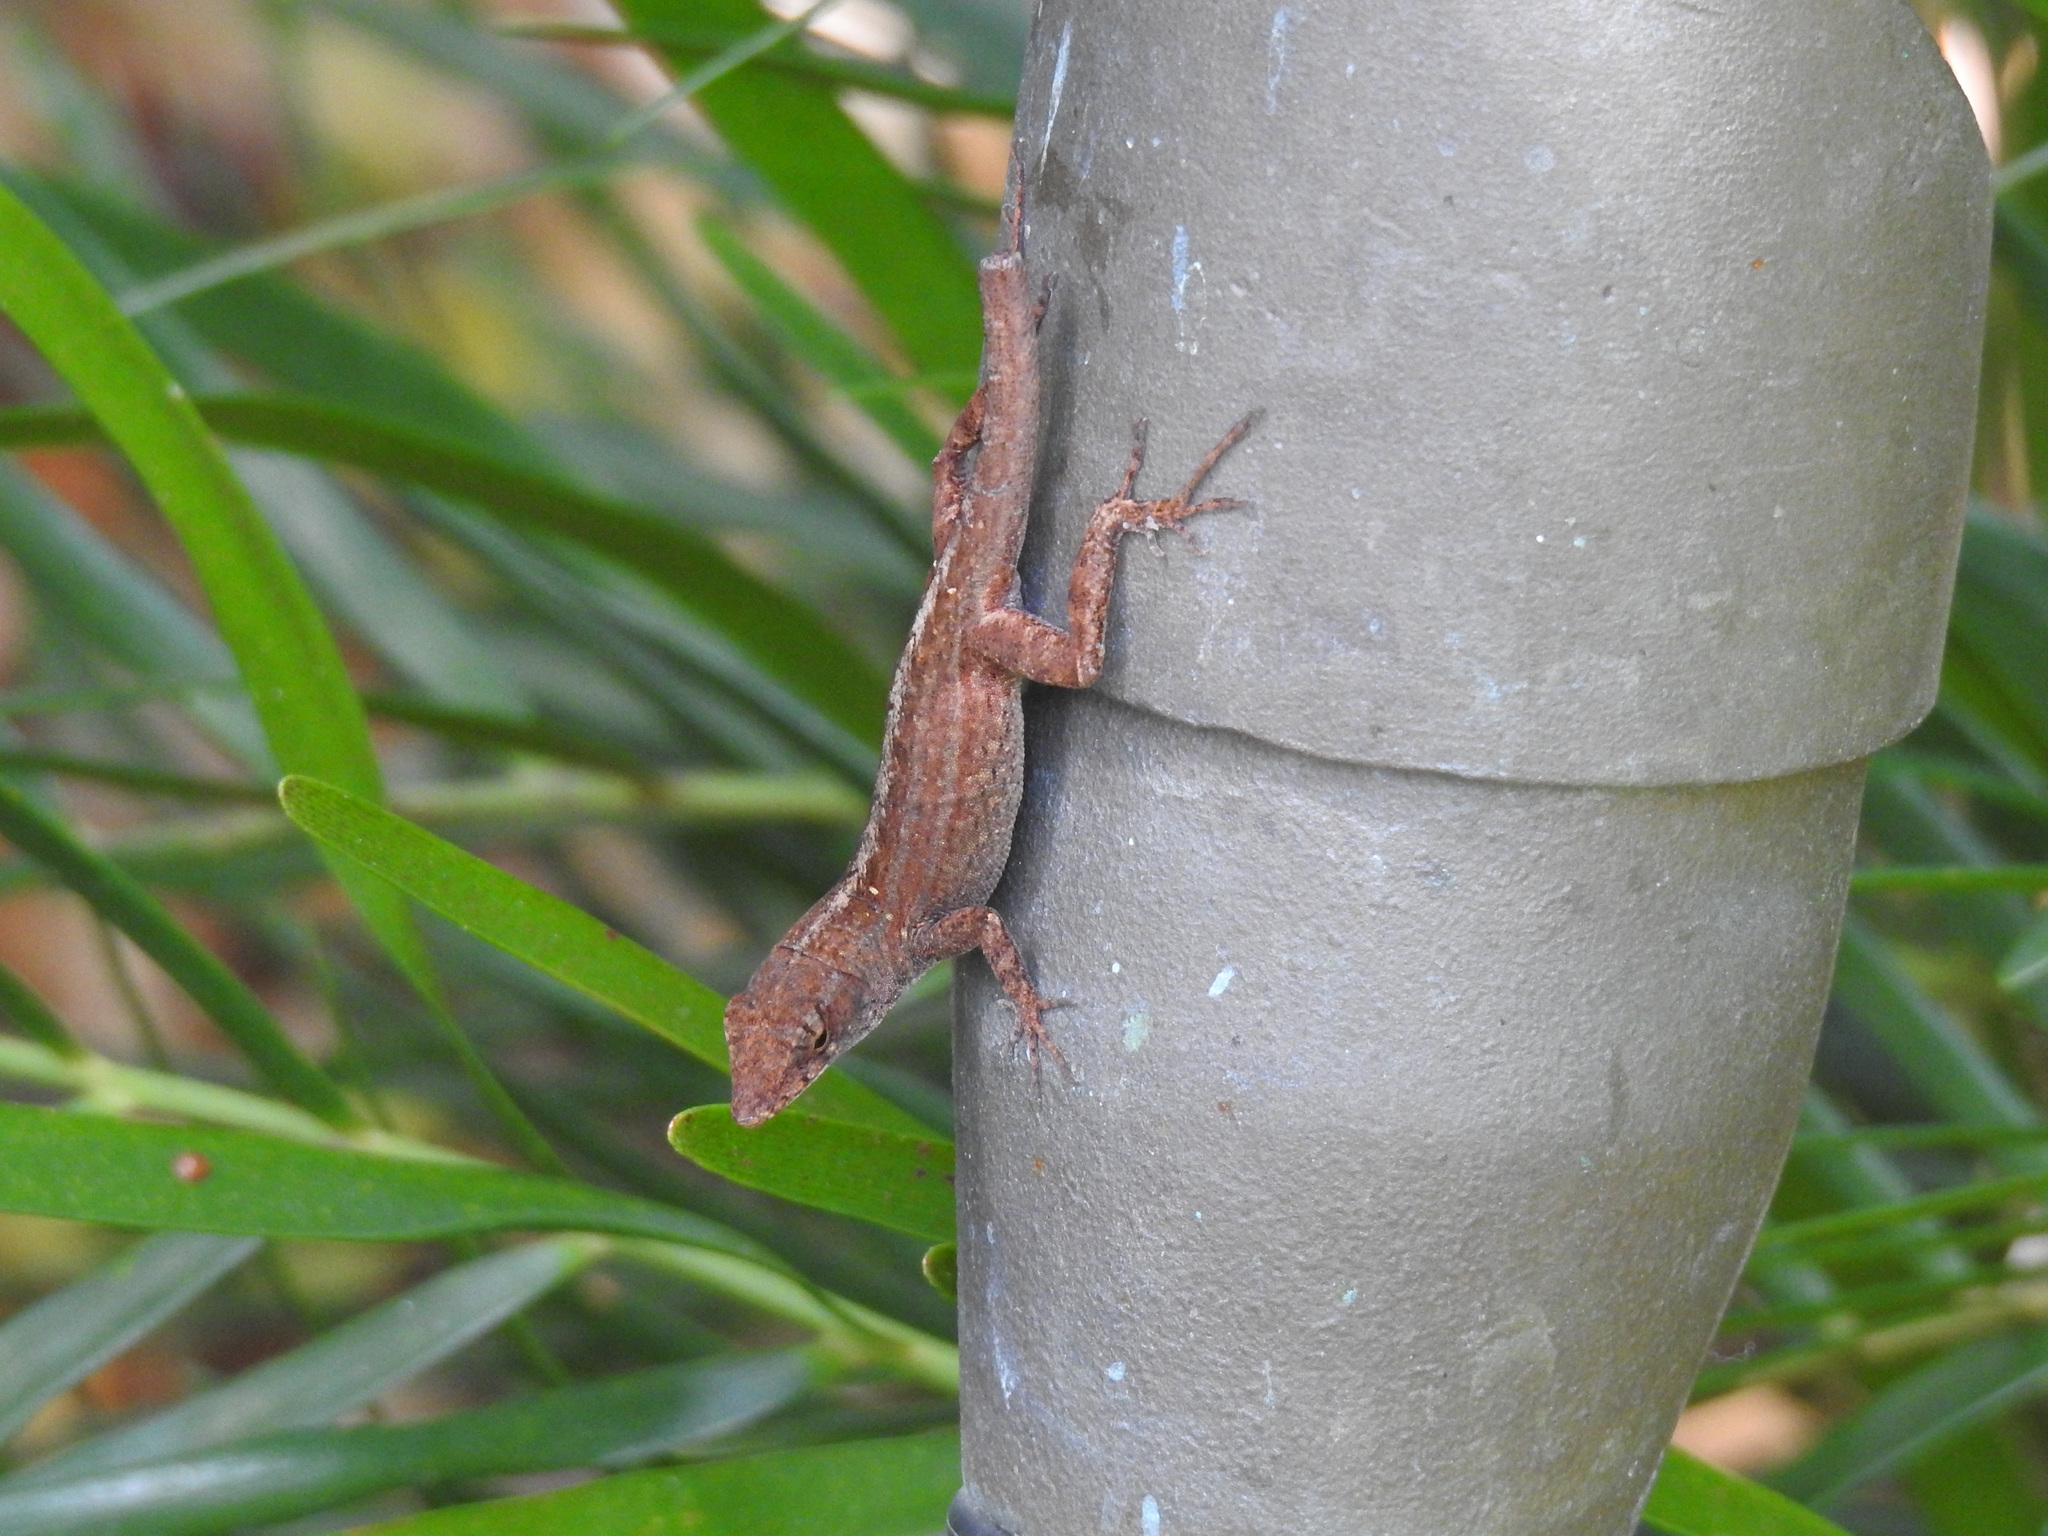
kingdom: Animalia
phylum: Chordata
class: Squamata
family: Dactyloidae
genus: Anolis
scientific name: Anolis sagrei
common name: Brown anole
